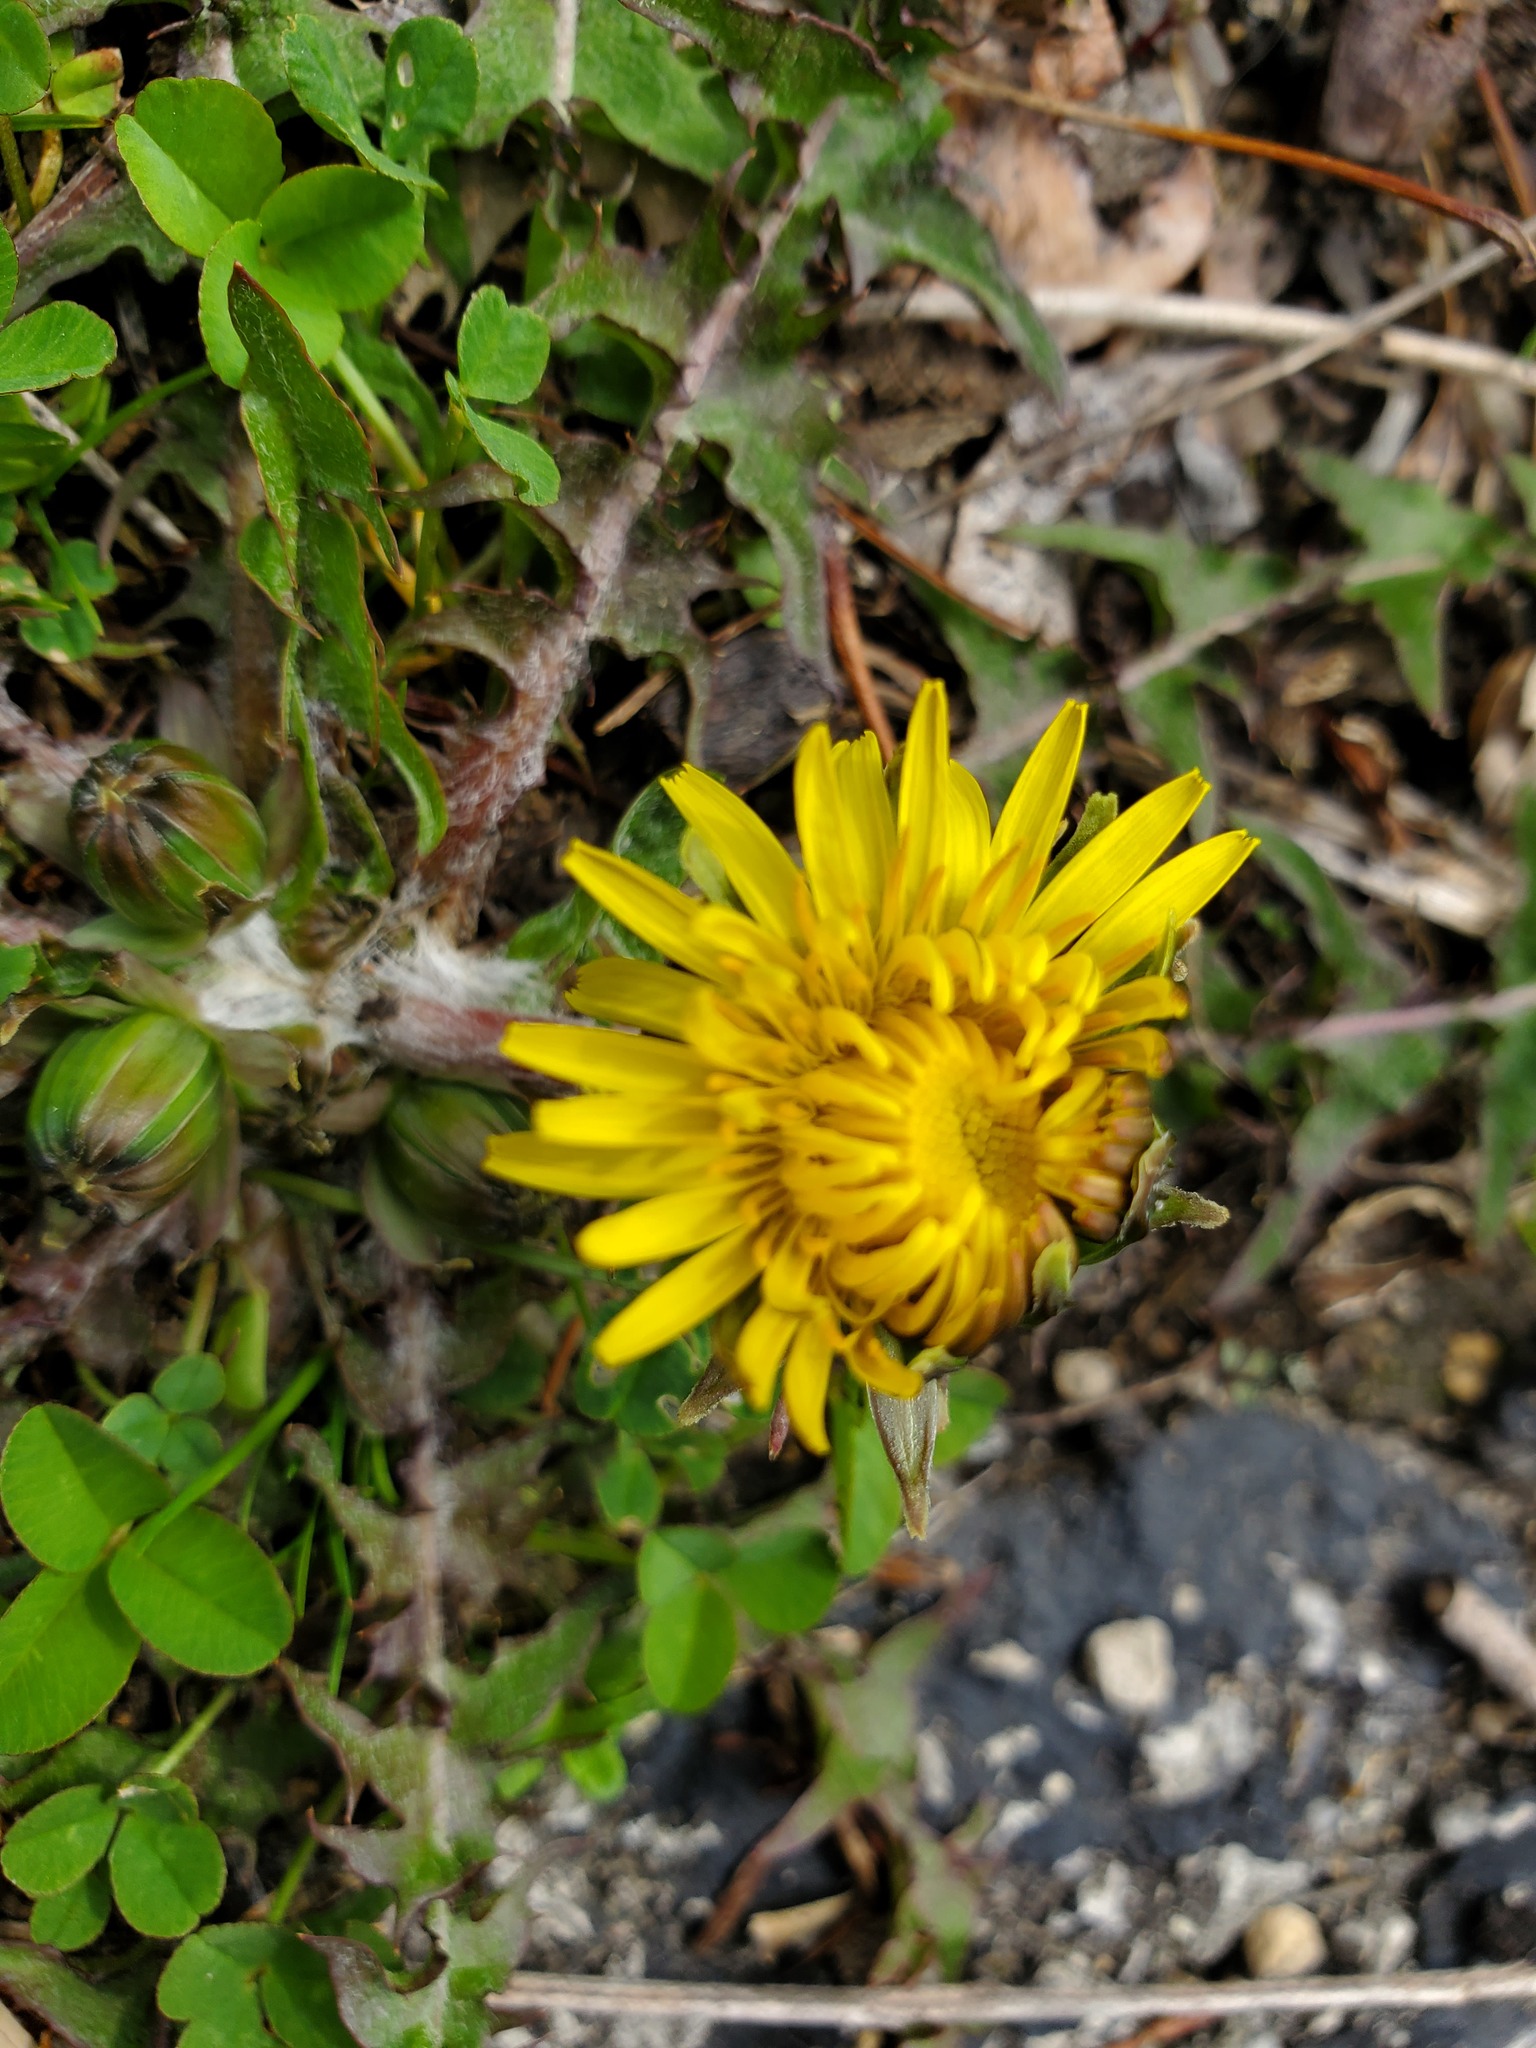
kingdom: Plantae
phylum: Tracheophyta
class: Magnoliopsida
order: Asterales
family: Asteraceae
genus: Taraxacum
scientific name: Taraxacum officinale
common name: Common dandelion
